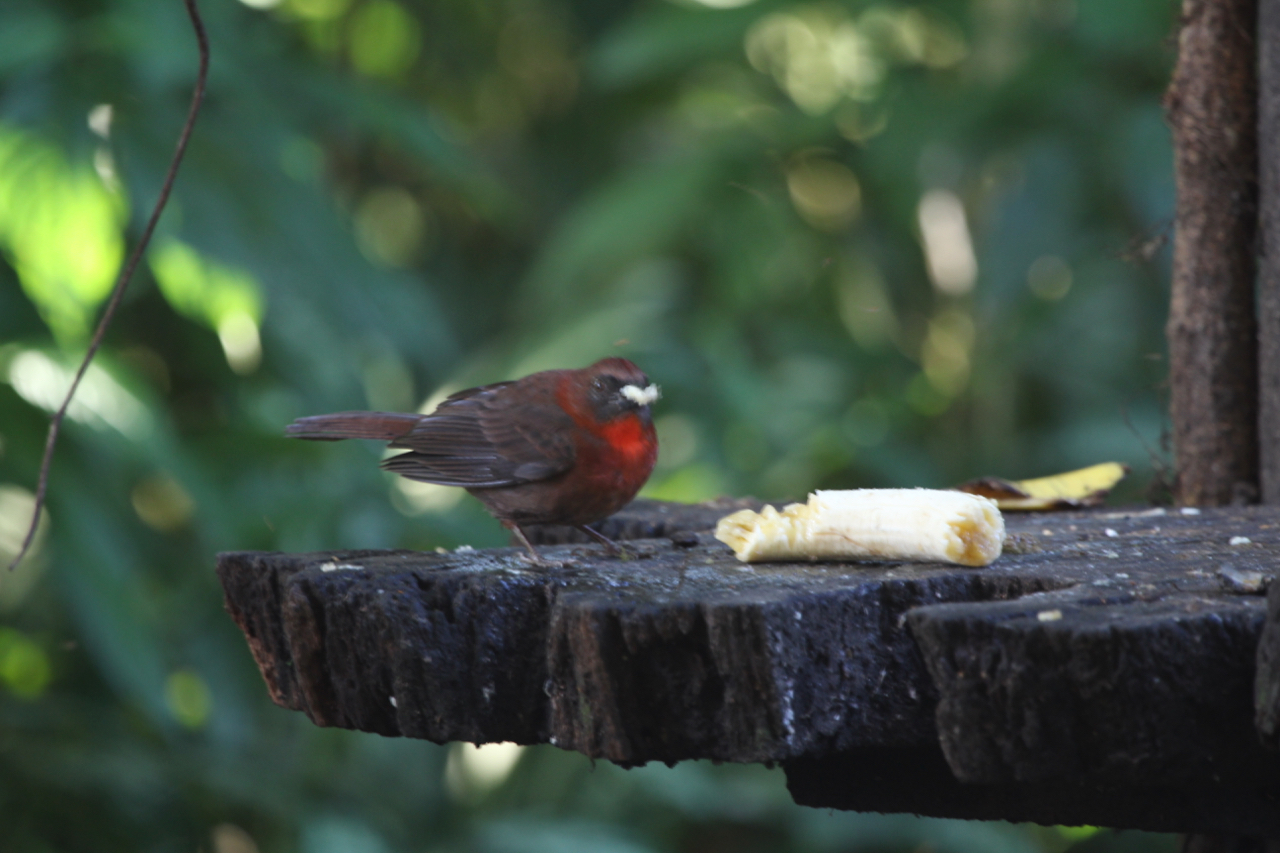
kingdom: Animalia
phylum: Chordata
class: Aves
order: Passeriformes
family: Cardinalidae
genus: Habia
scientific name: Habia fuscicauda
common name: Red-throated ant-tanager
